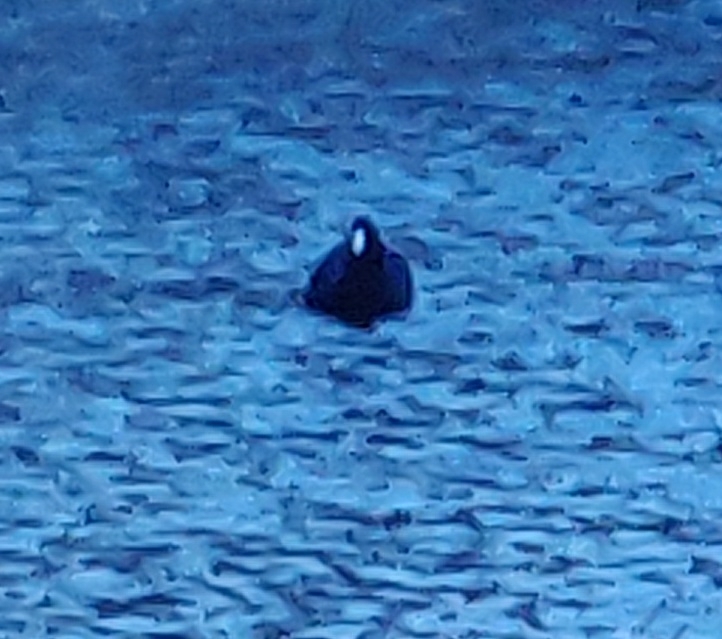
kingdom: Animalia
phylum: Chordata
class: Aves
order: Gruiformes
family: Rallidae
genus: Fulica
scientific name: Fulica americana
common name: American coot
